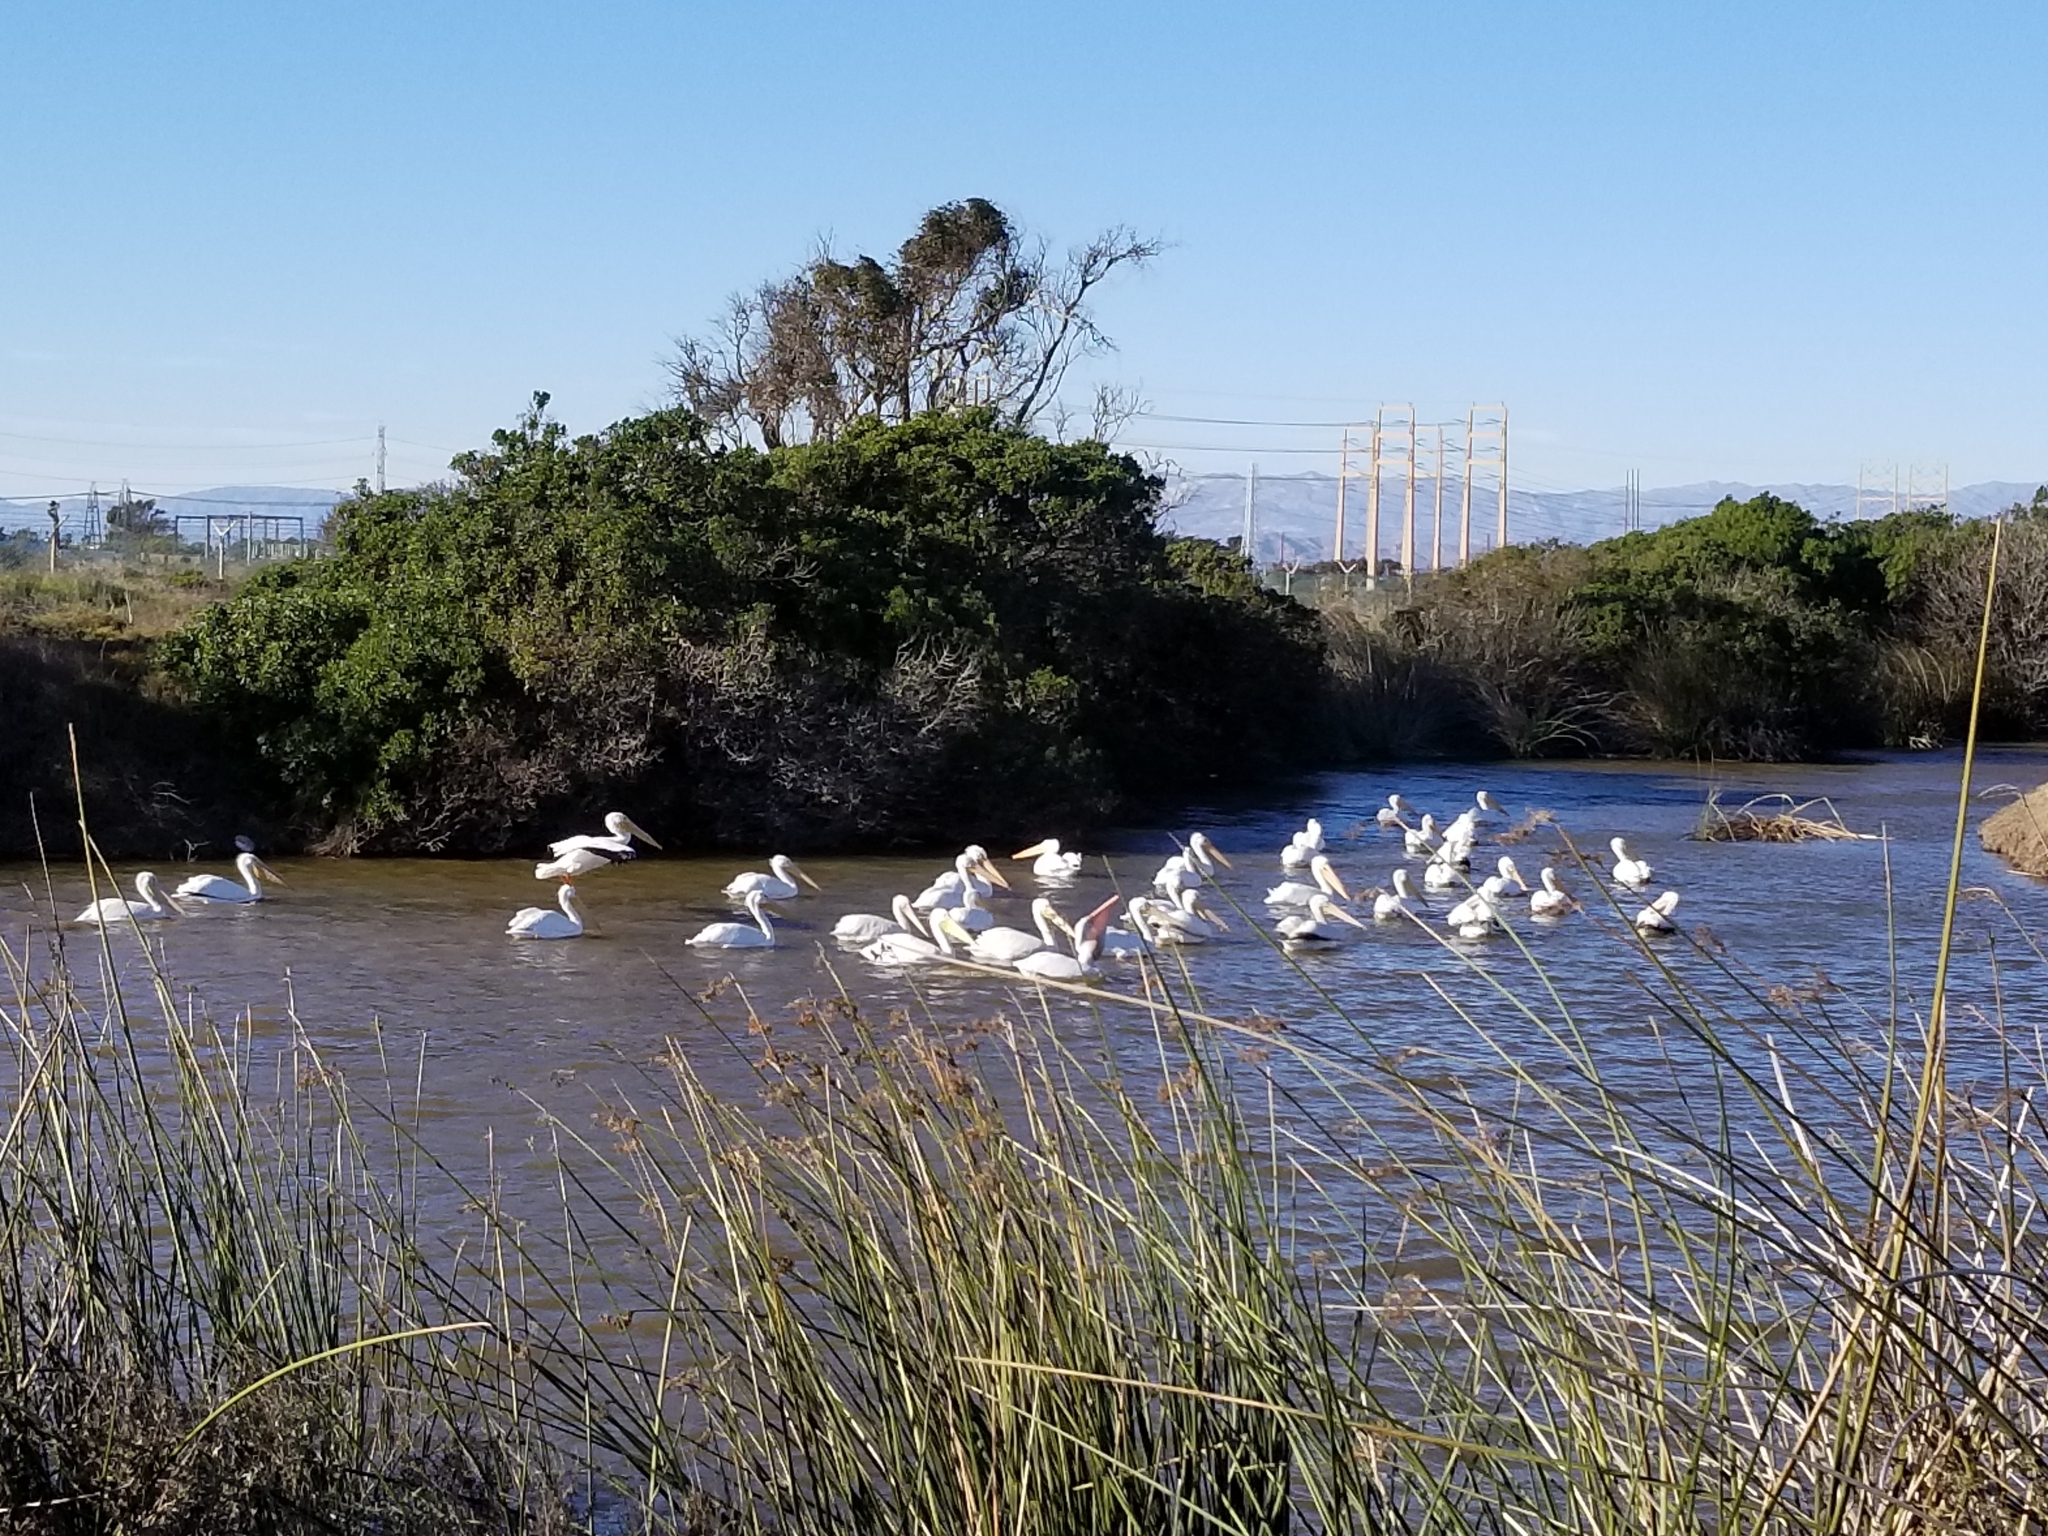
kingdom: Animalia
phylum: Chordata
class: Aves
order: Pelecaniformes
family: Pelecanidae
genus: Pelecanus
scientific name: Pelecanus erythrorhynchos
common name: American white pelican
